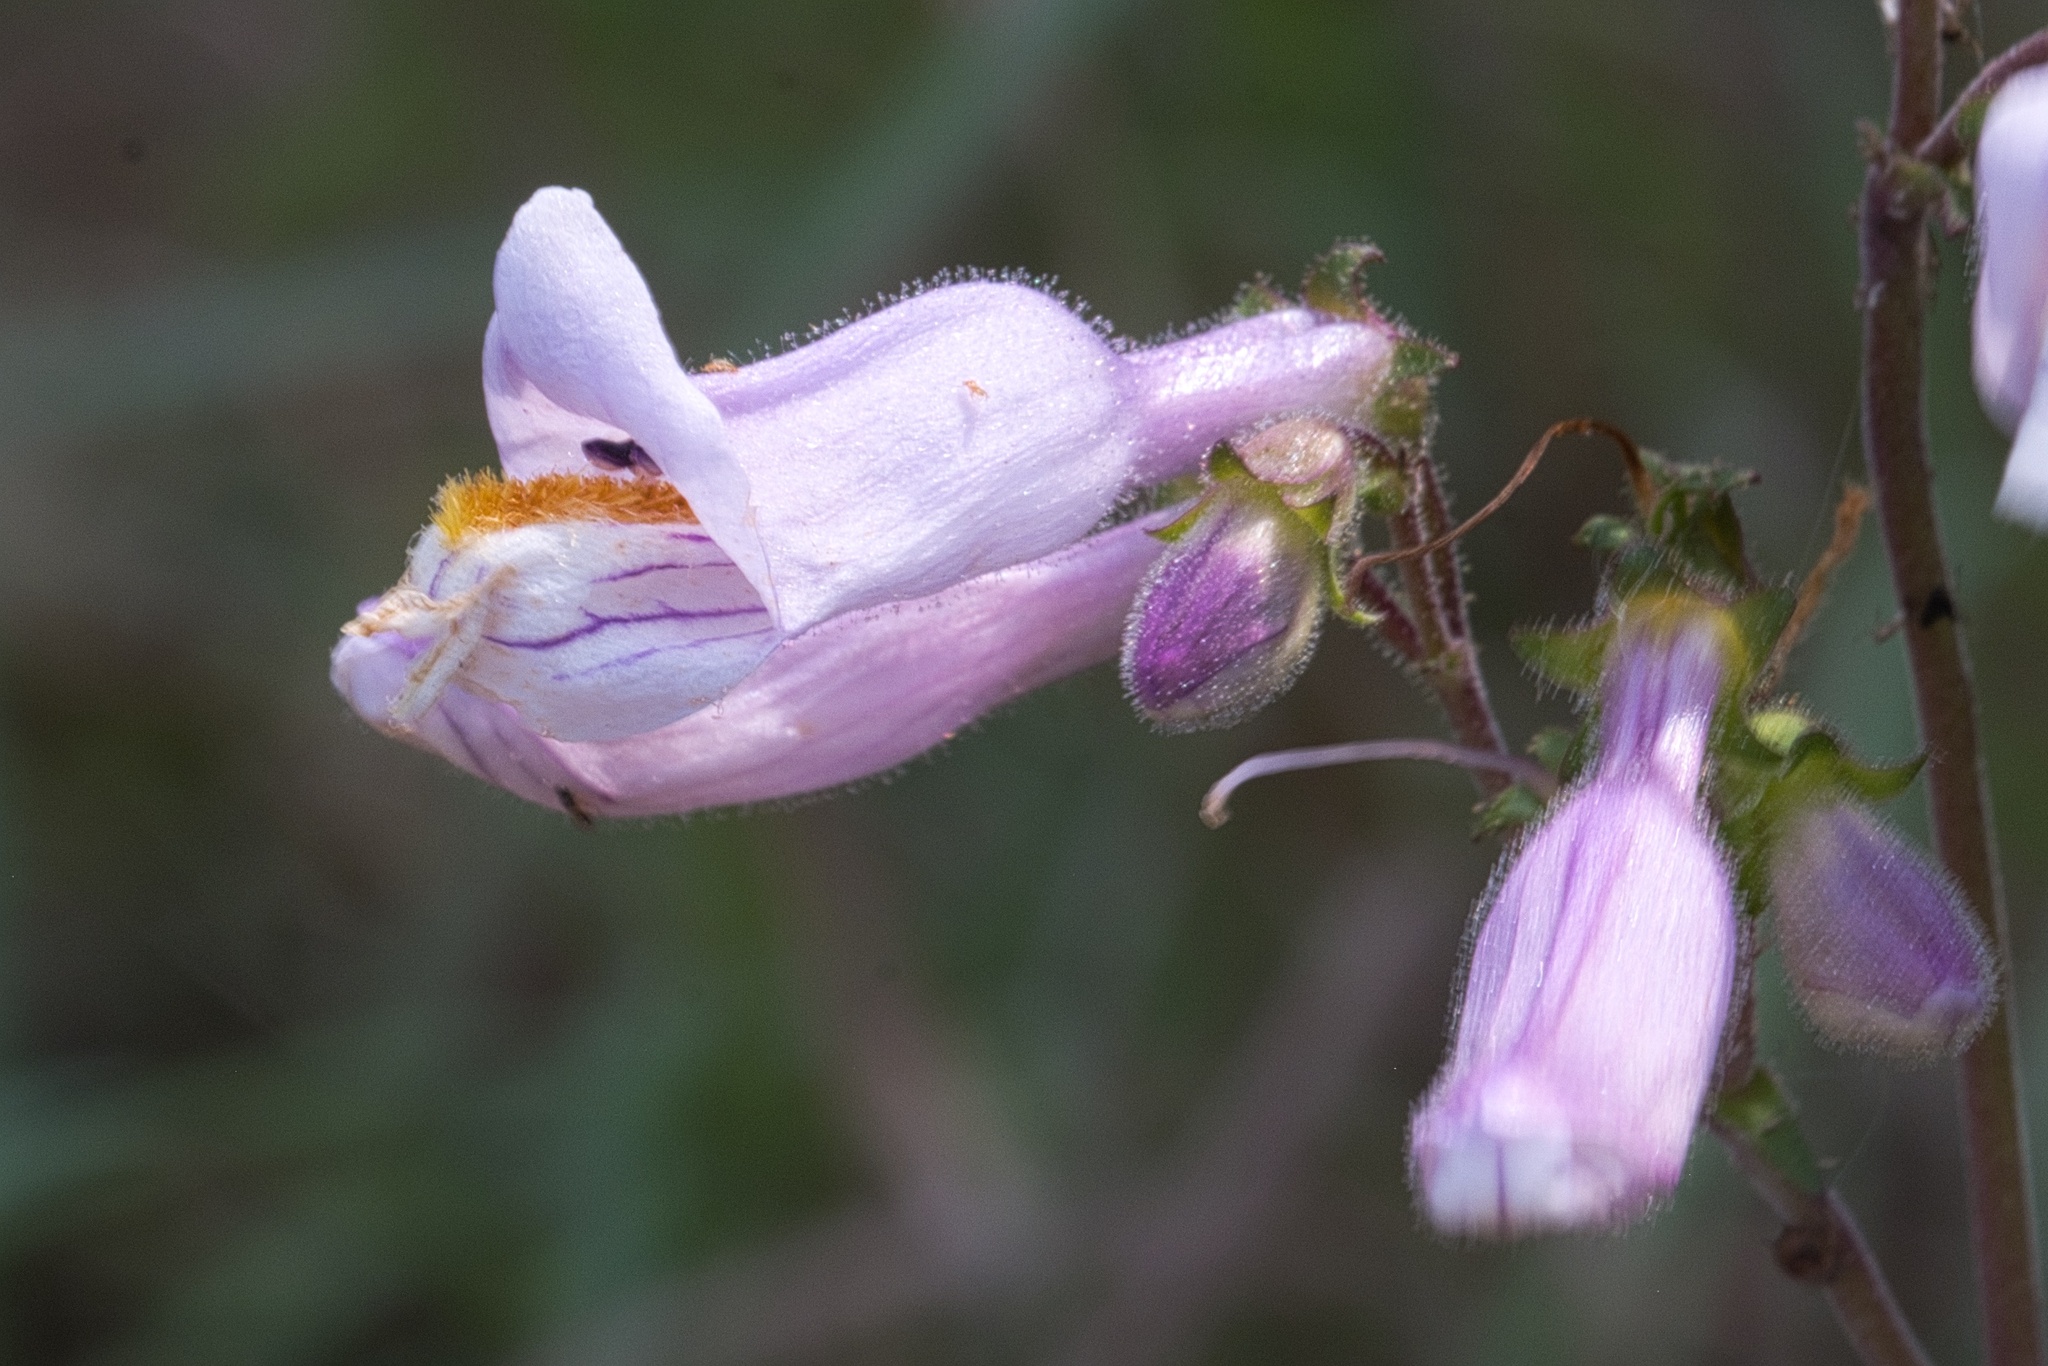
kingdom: Plantae
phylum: Tracheophyta
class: Magnoliopsida
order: Lamiales
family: Plantaginaceae
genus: Penstemon
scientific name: Penstemon laxiflorus
